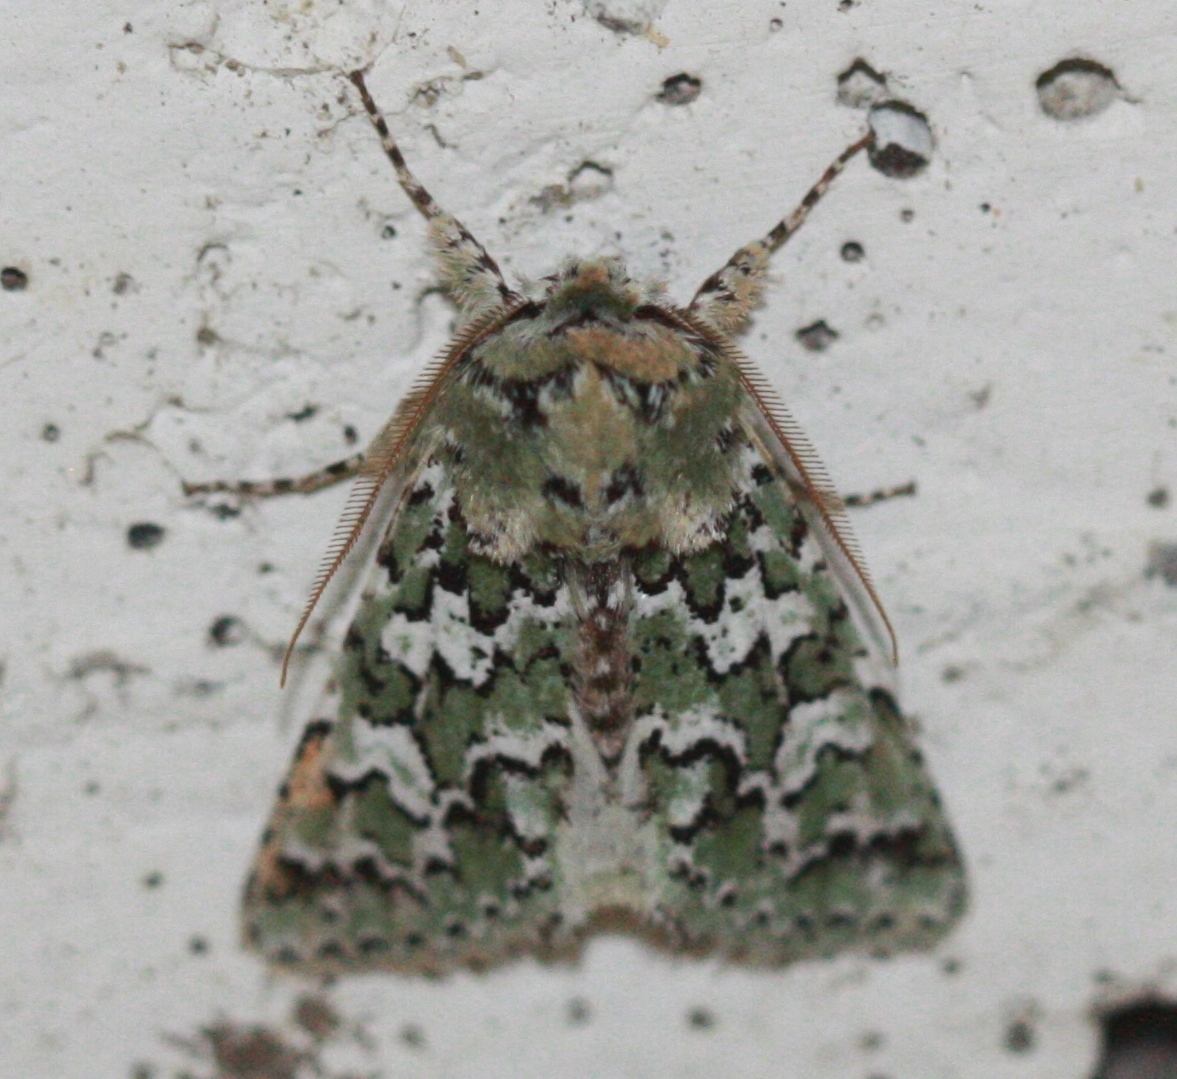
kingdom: Animalia
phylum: Arthropoda
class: Insecta
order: Lepidoptera
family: Noctuidae
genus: Feralia
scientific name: Feralia februalis
